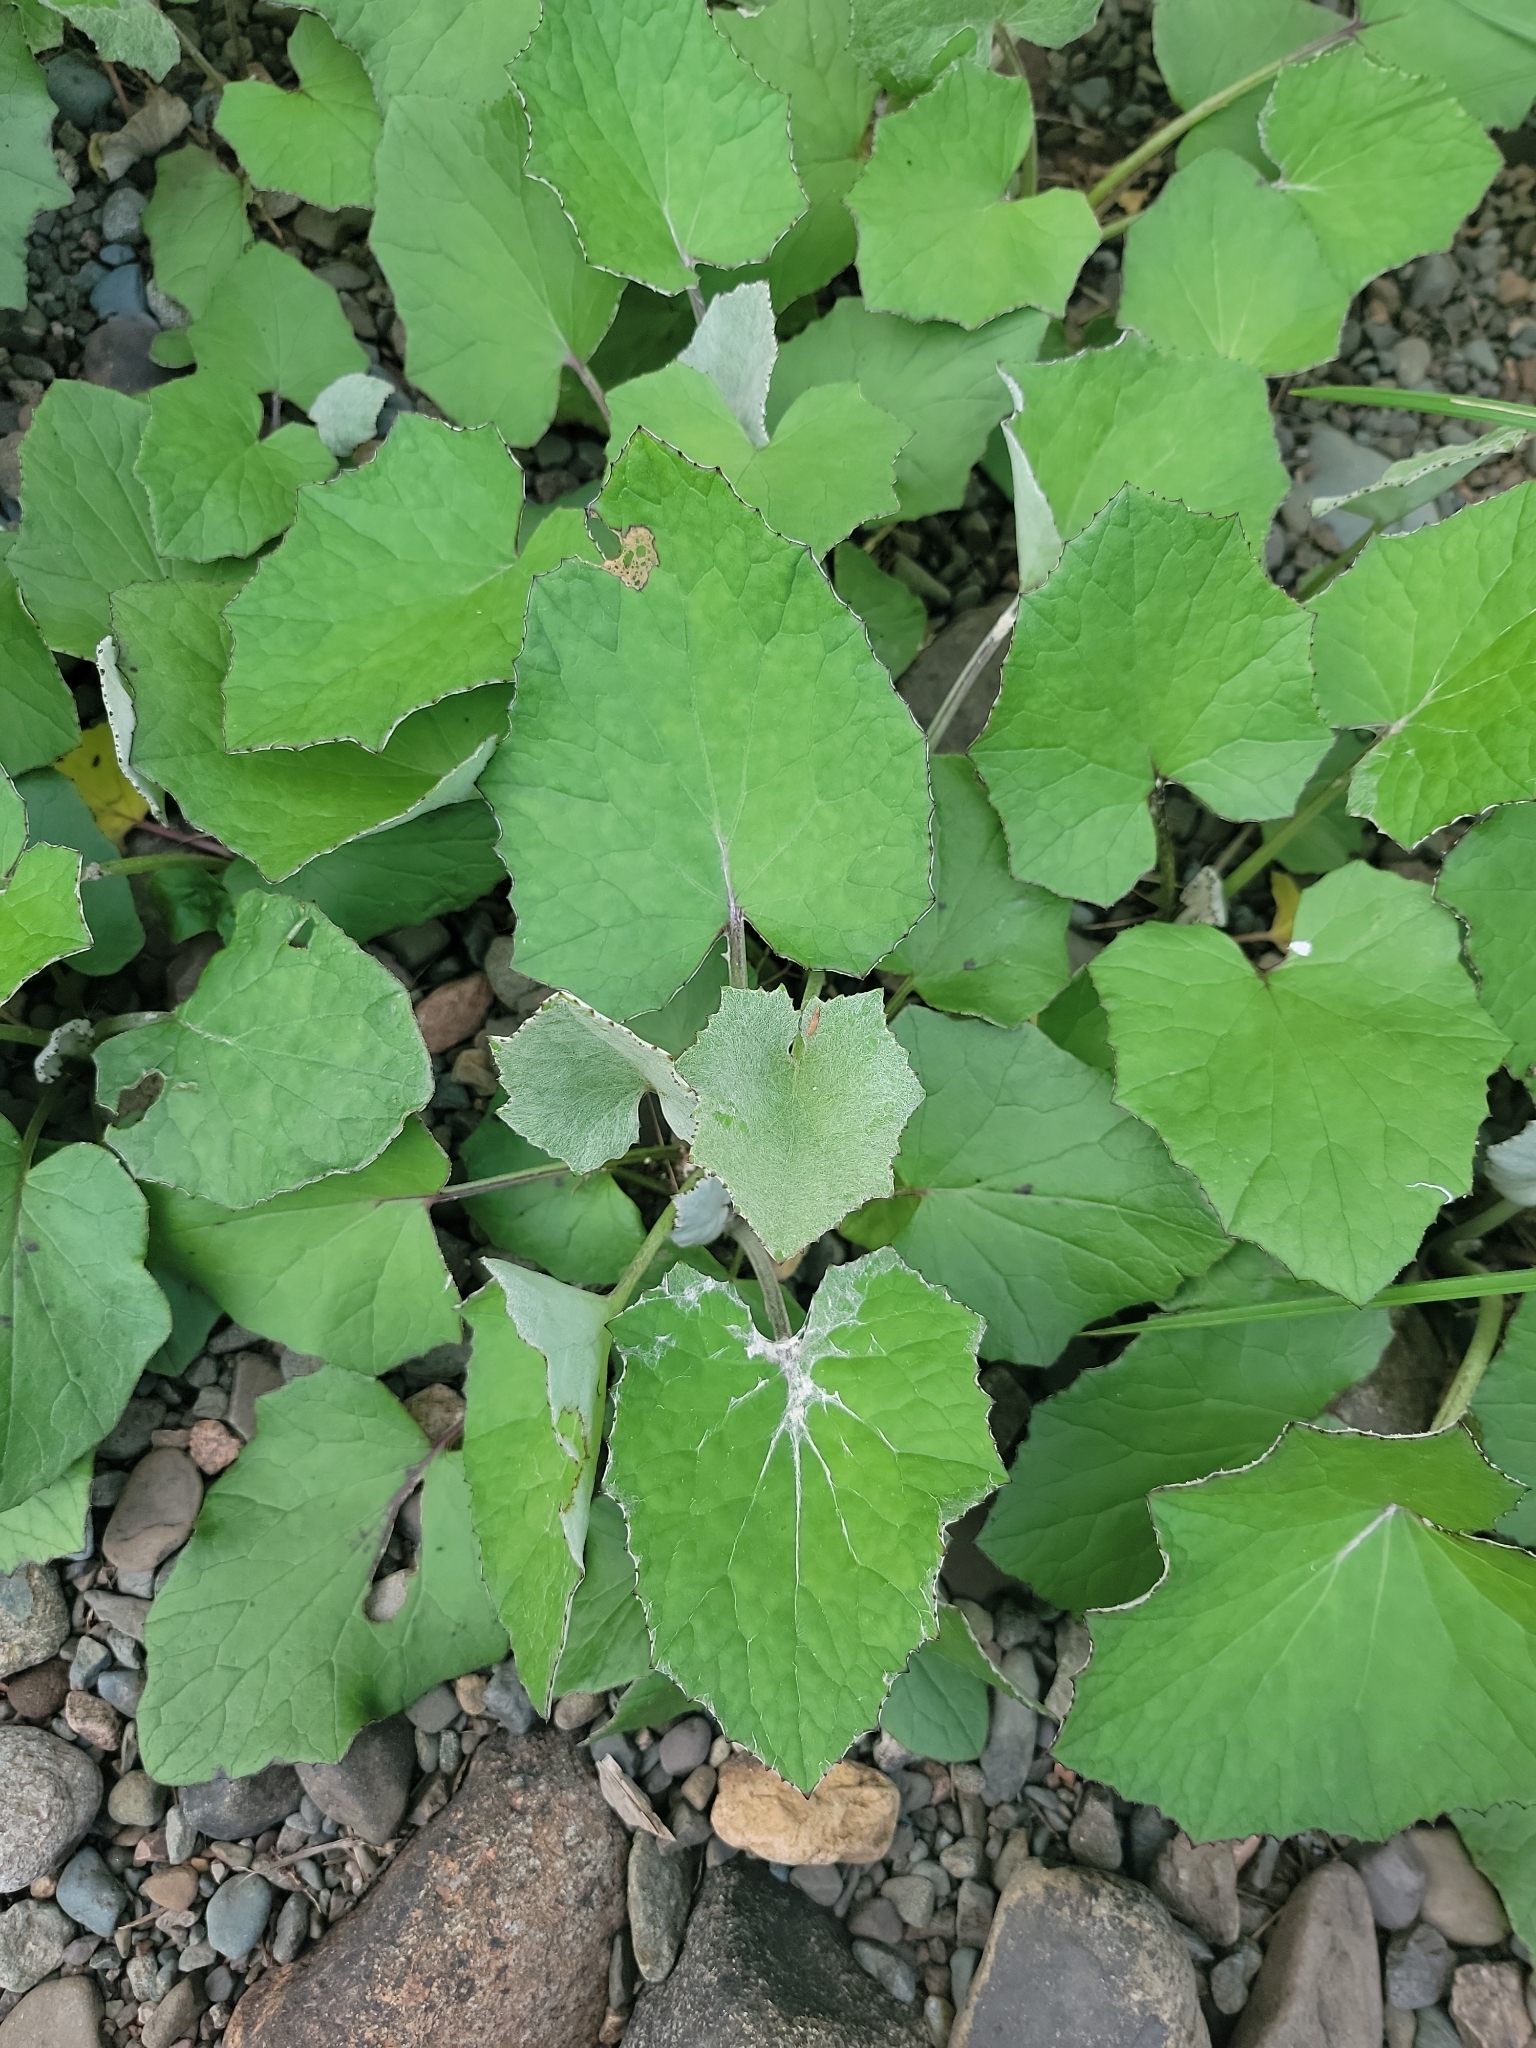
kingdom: Plantae
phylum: Tracheophyta
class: Magnoliopsida
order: Asterales
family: Asteraceae
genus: Tussilago
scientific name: Tussilago farfara
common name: Coltsfoot
